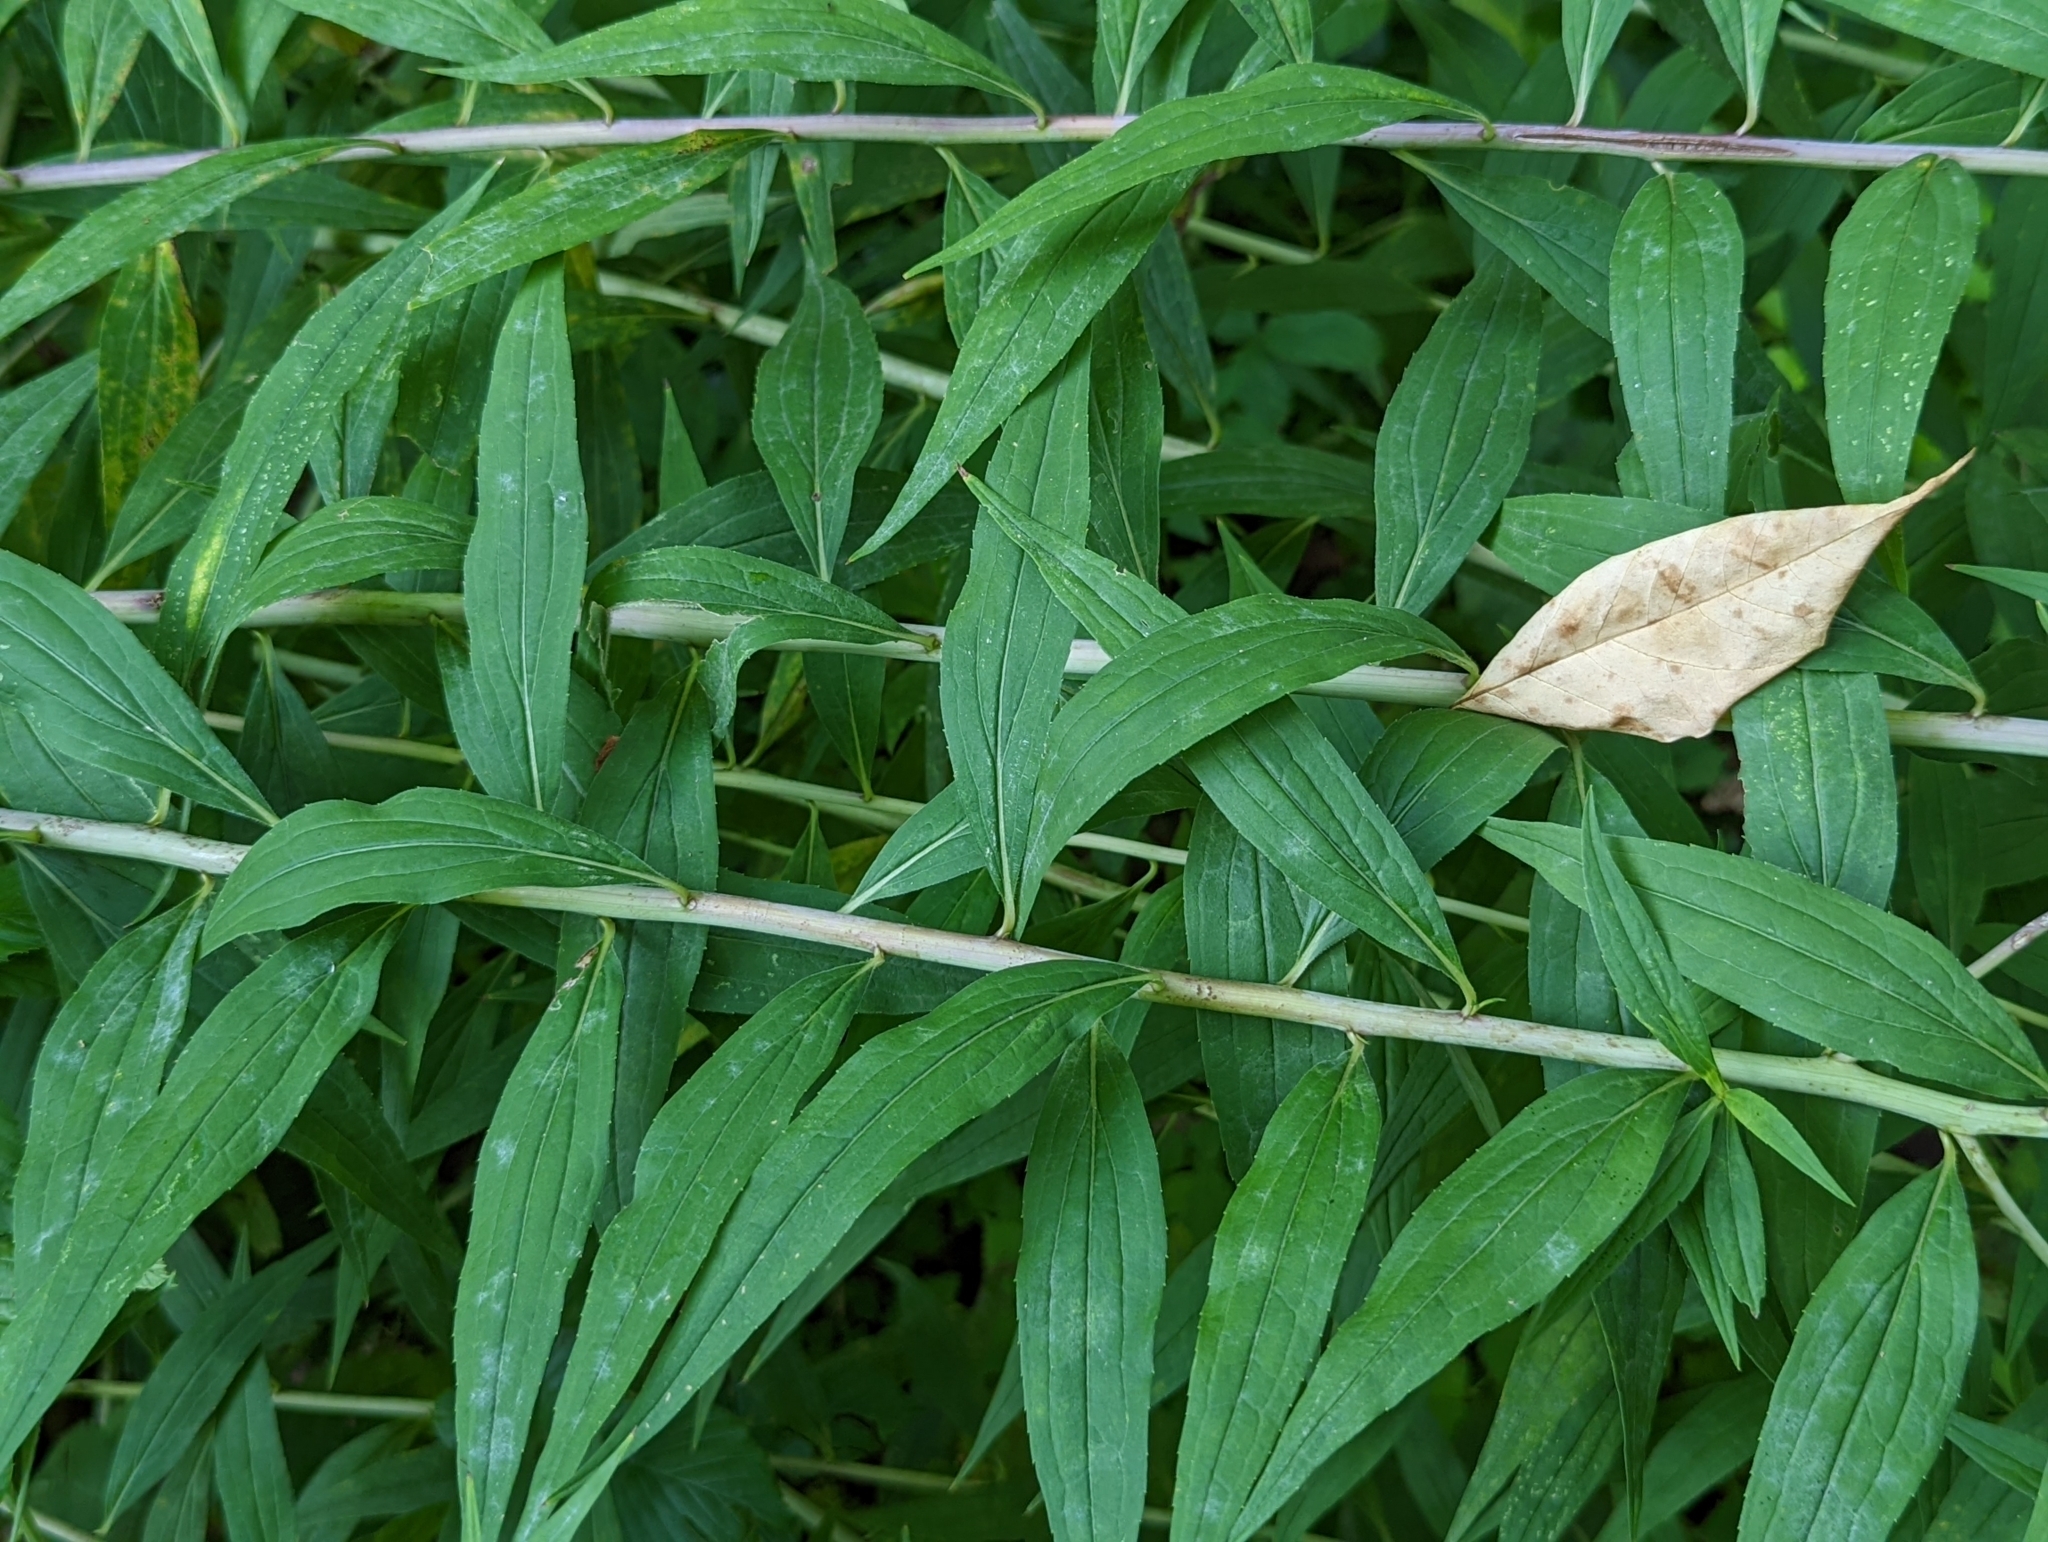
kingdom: Plantae
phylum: Tracheophyta
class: Magnoliopsida
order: Asterales
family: Asteraceae
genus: Solidago
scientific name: Solidago gigantea
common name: Giant goldenrod
